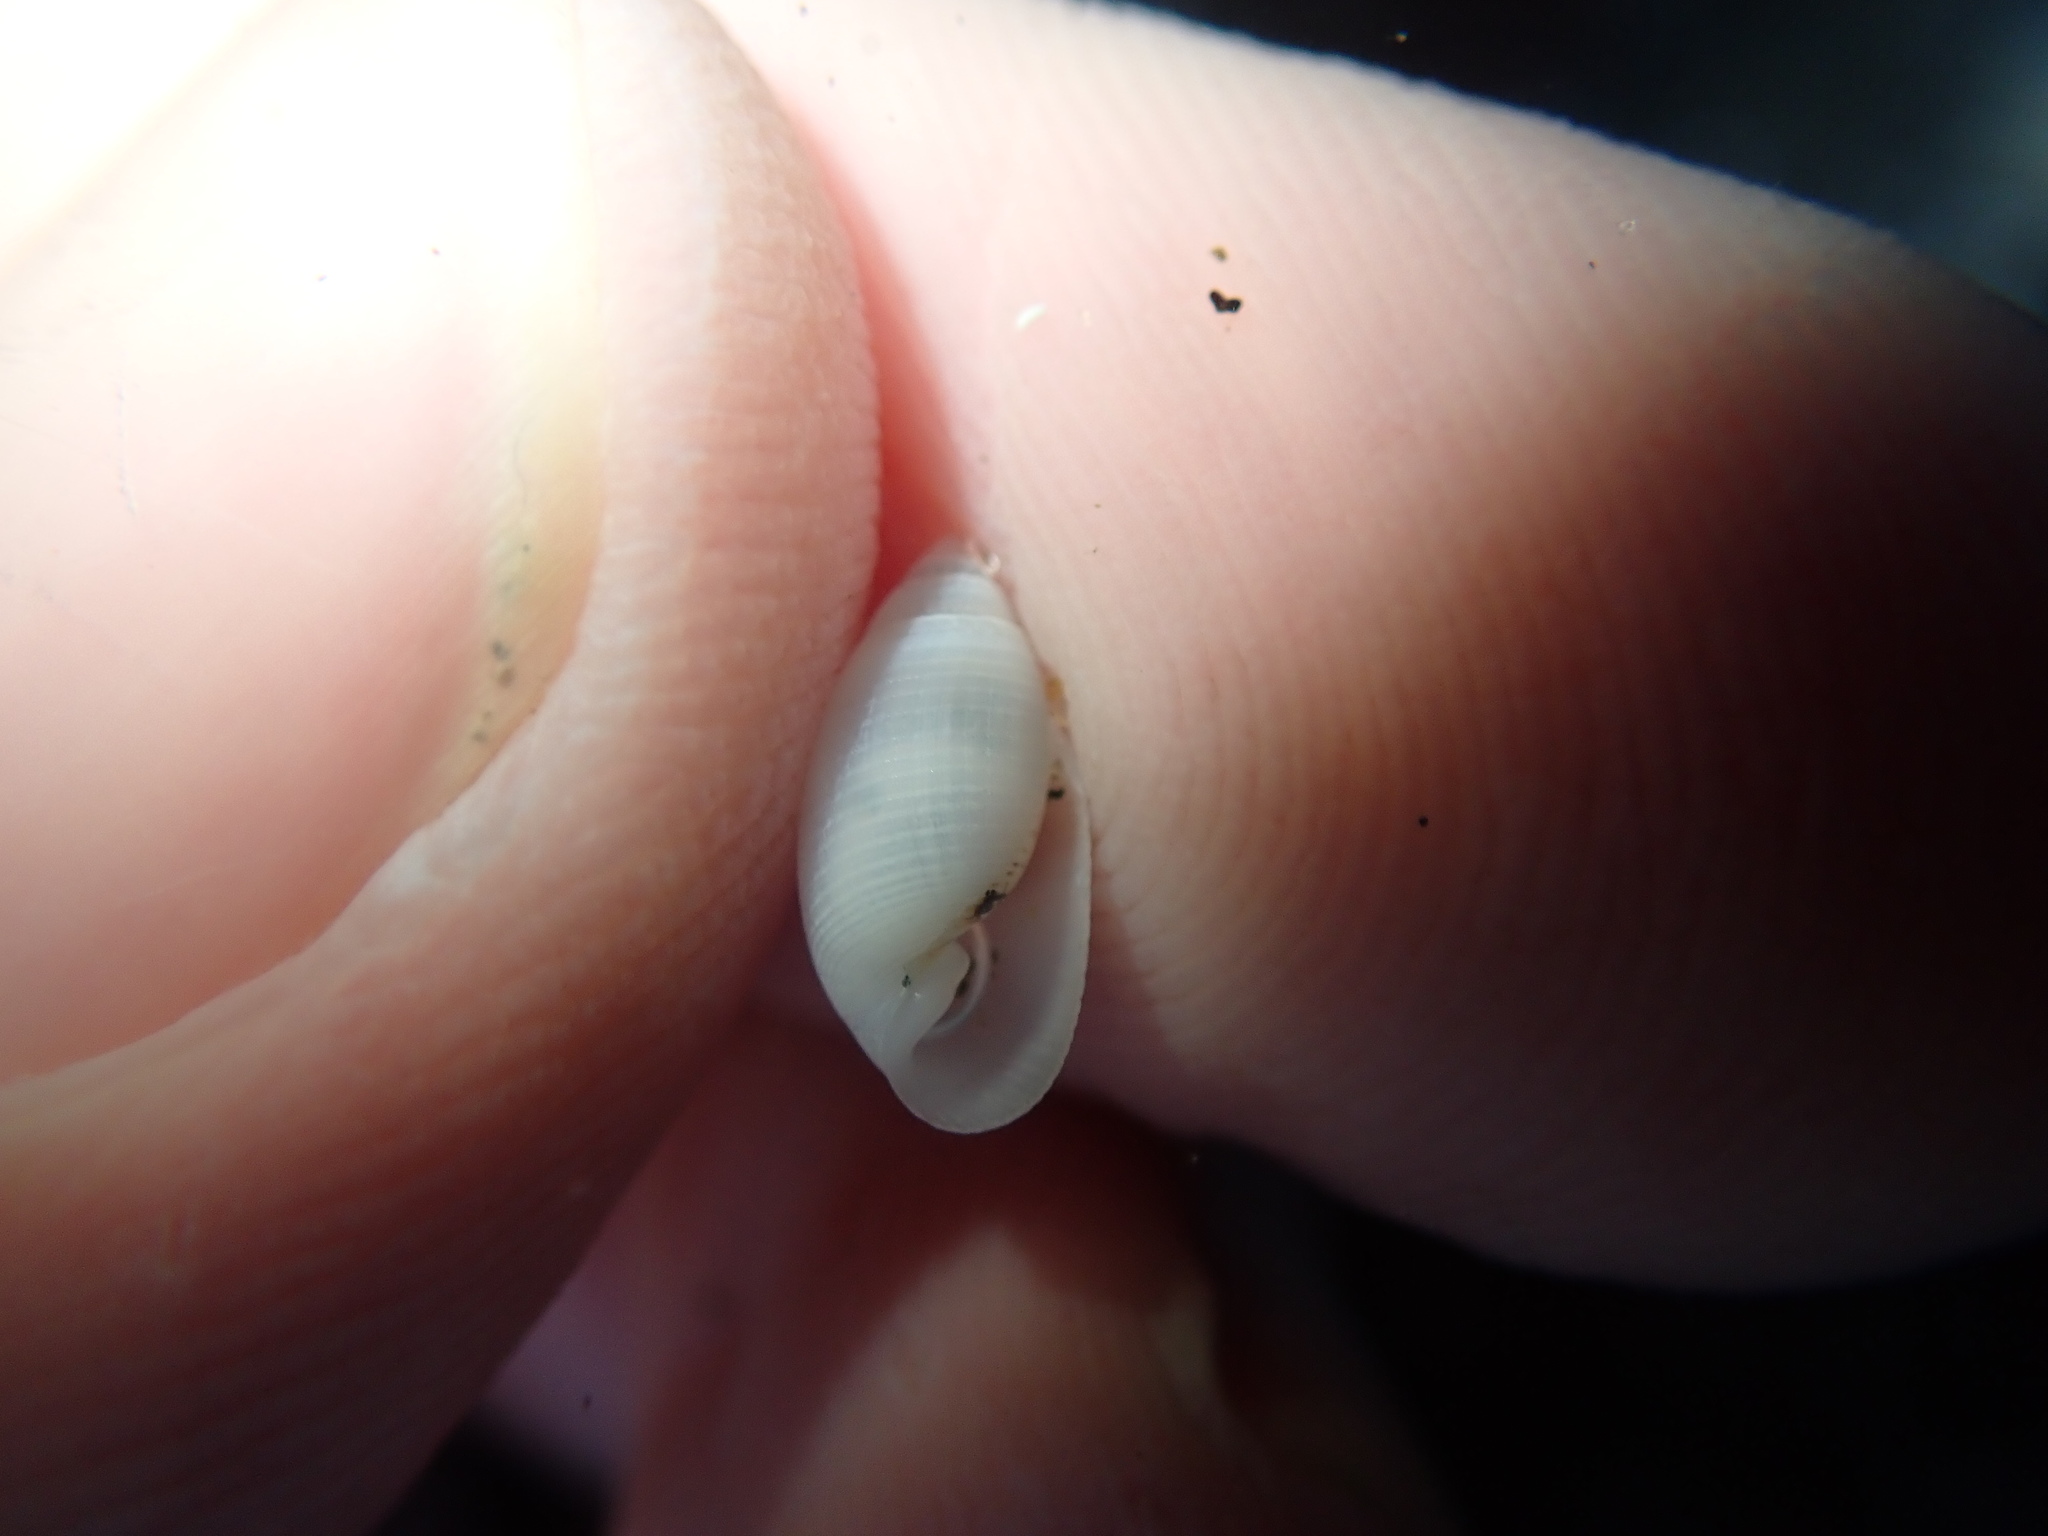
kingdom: Animalia
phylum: Mollusca
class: Gastropoda
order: Cephalaspidea
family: Acteonidae
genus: Pupa
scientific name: Pupa affinis
